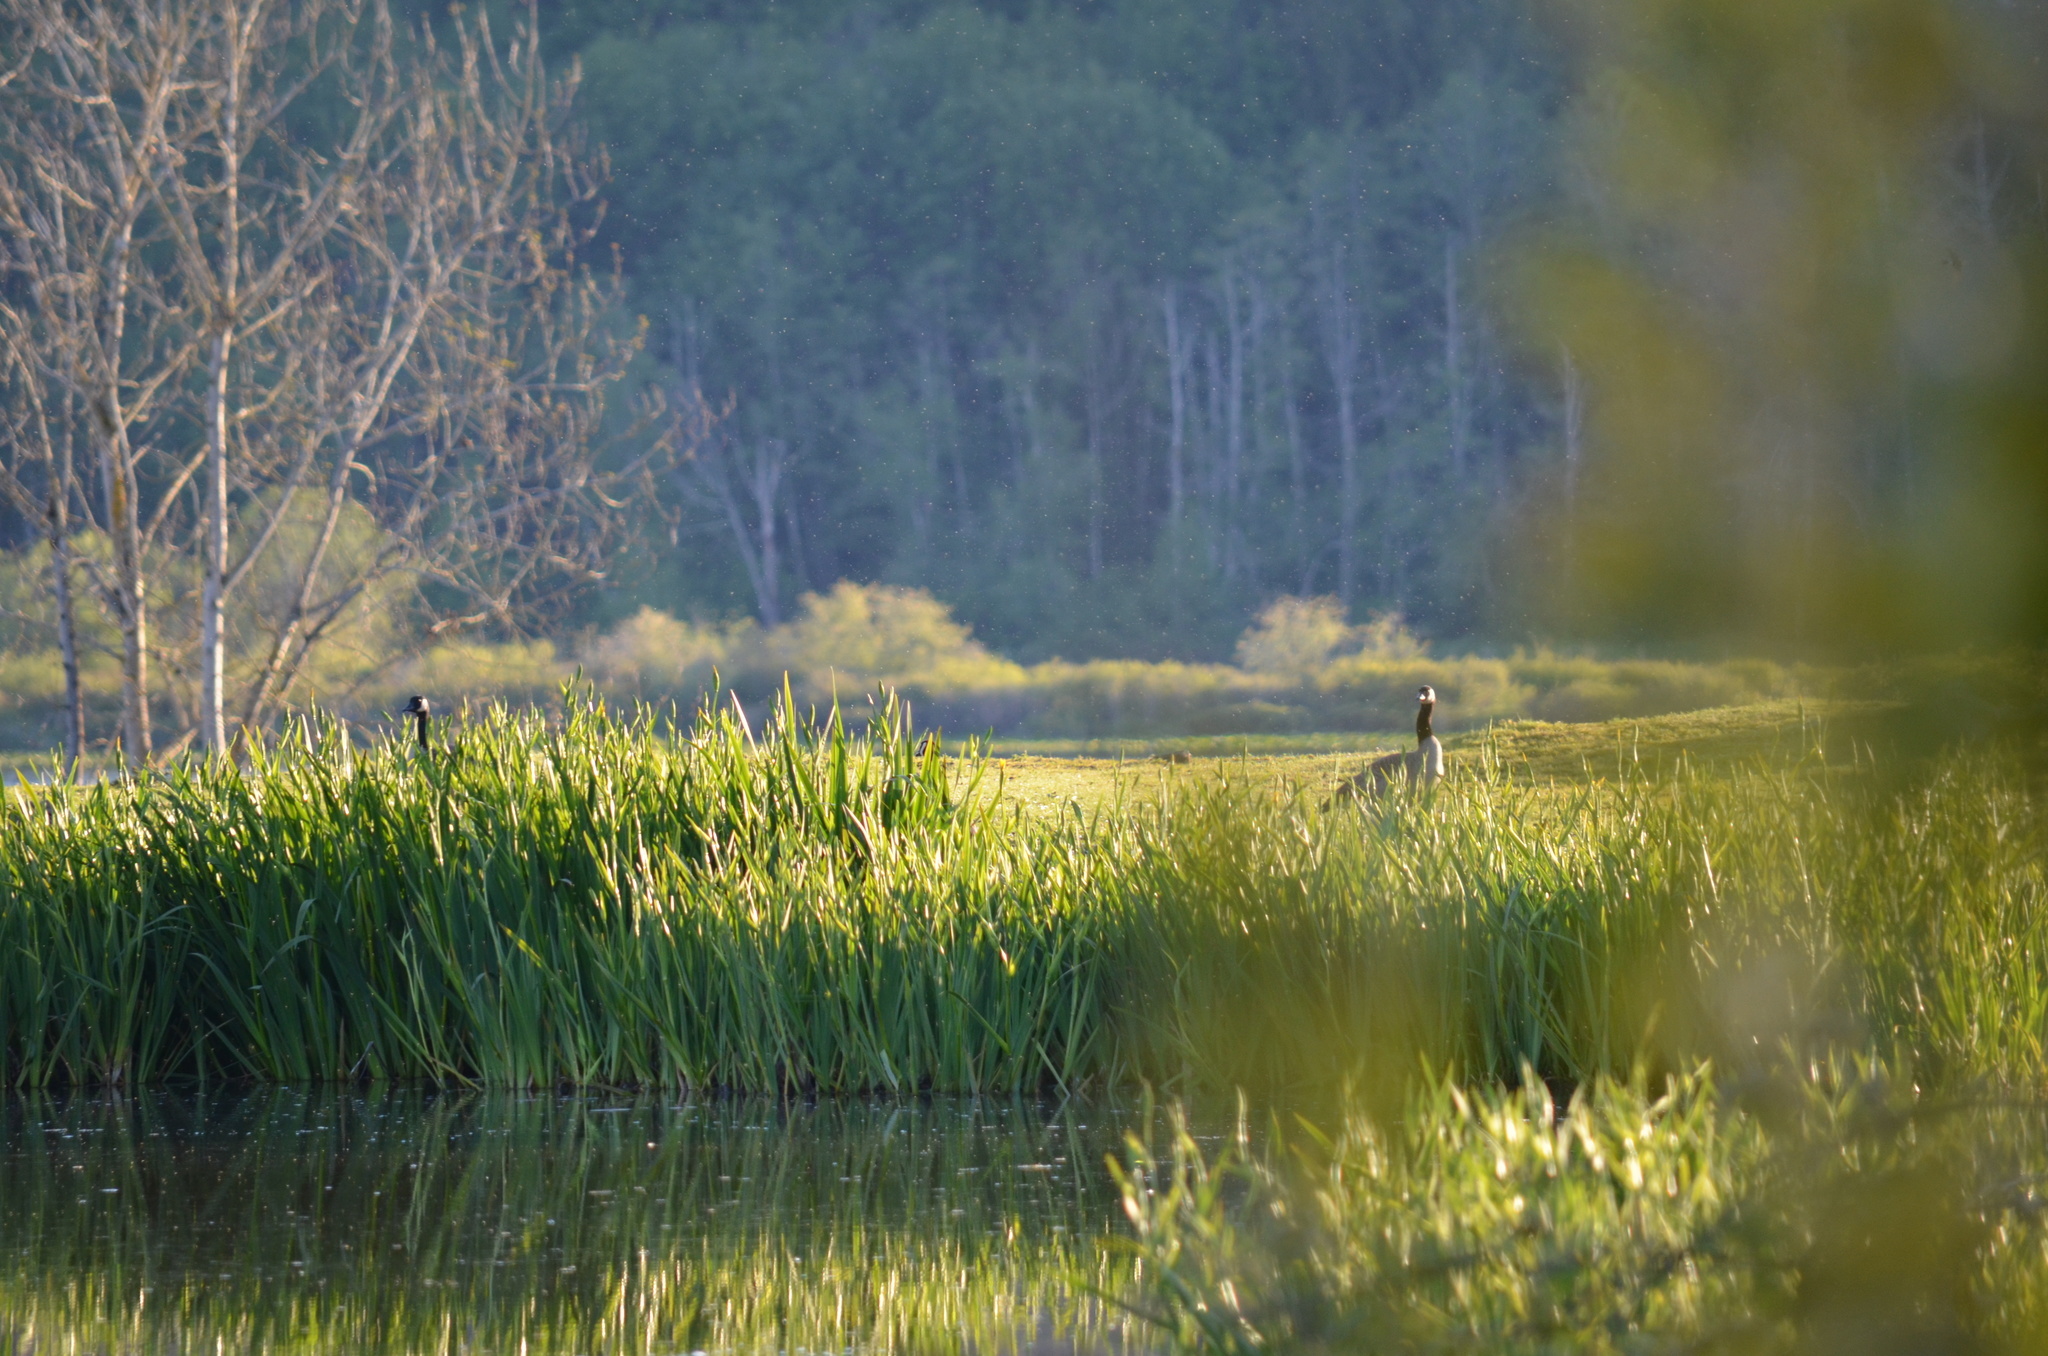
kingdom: Animalia
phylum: Chordata
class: Aves
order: Anseriformes
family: Anatidae
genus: Branta
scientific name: Branta canadensis
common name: Canada goose
